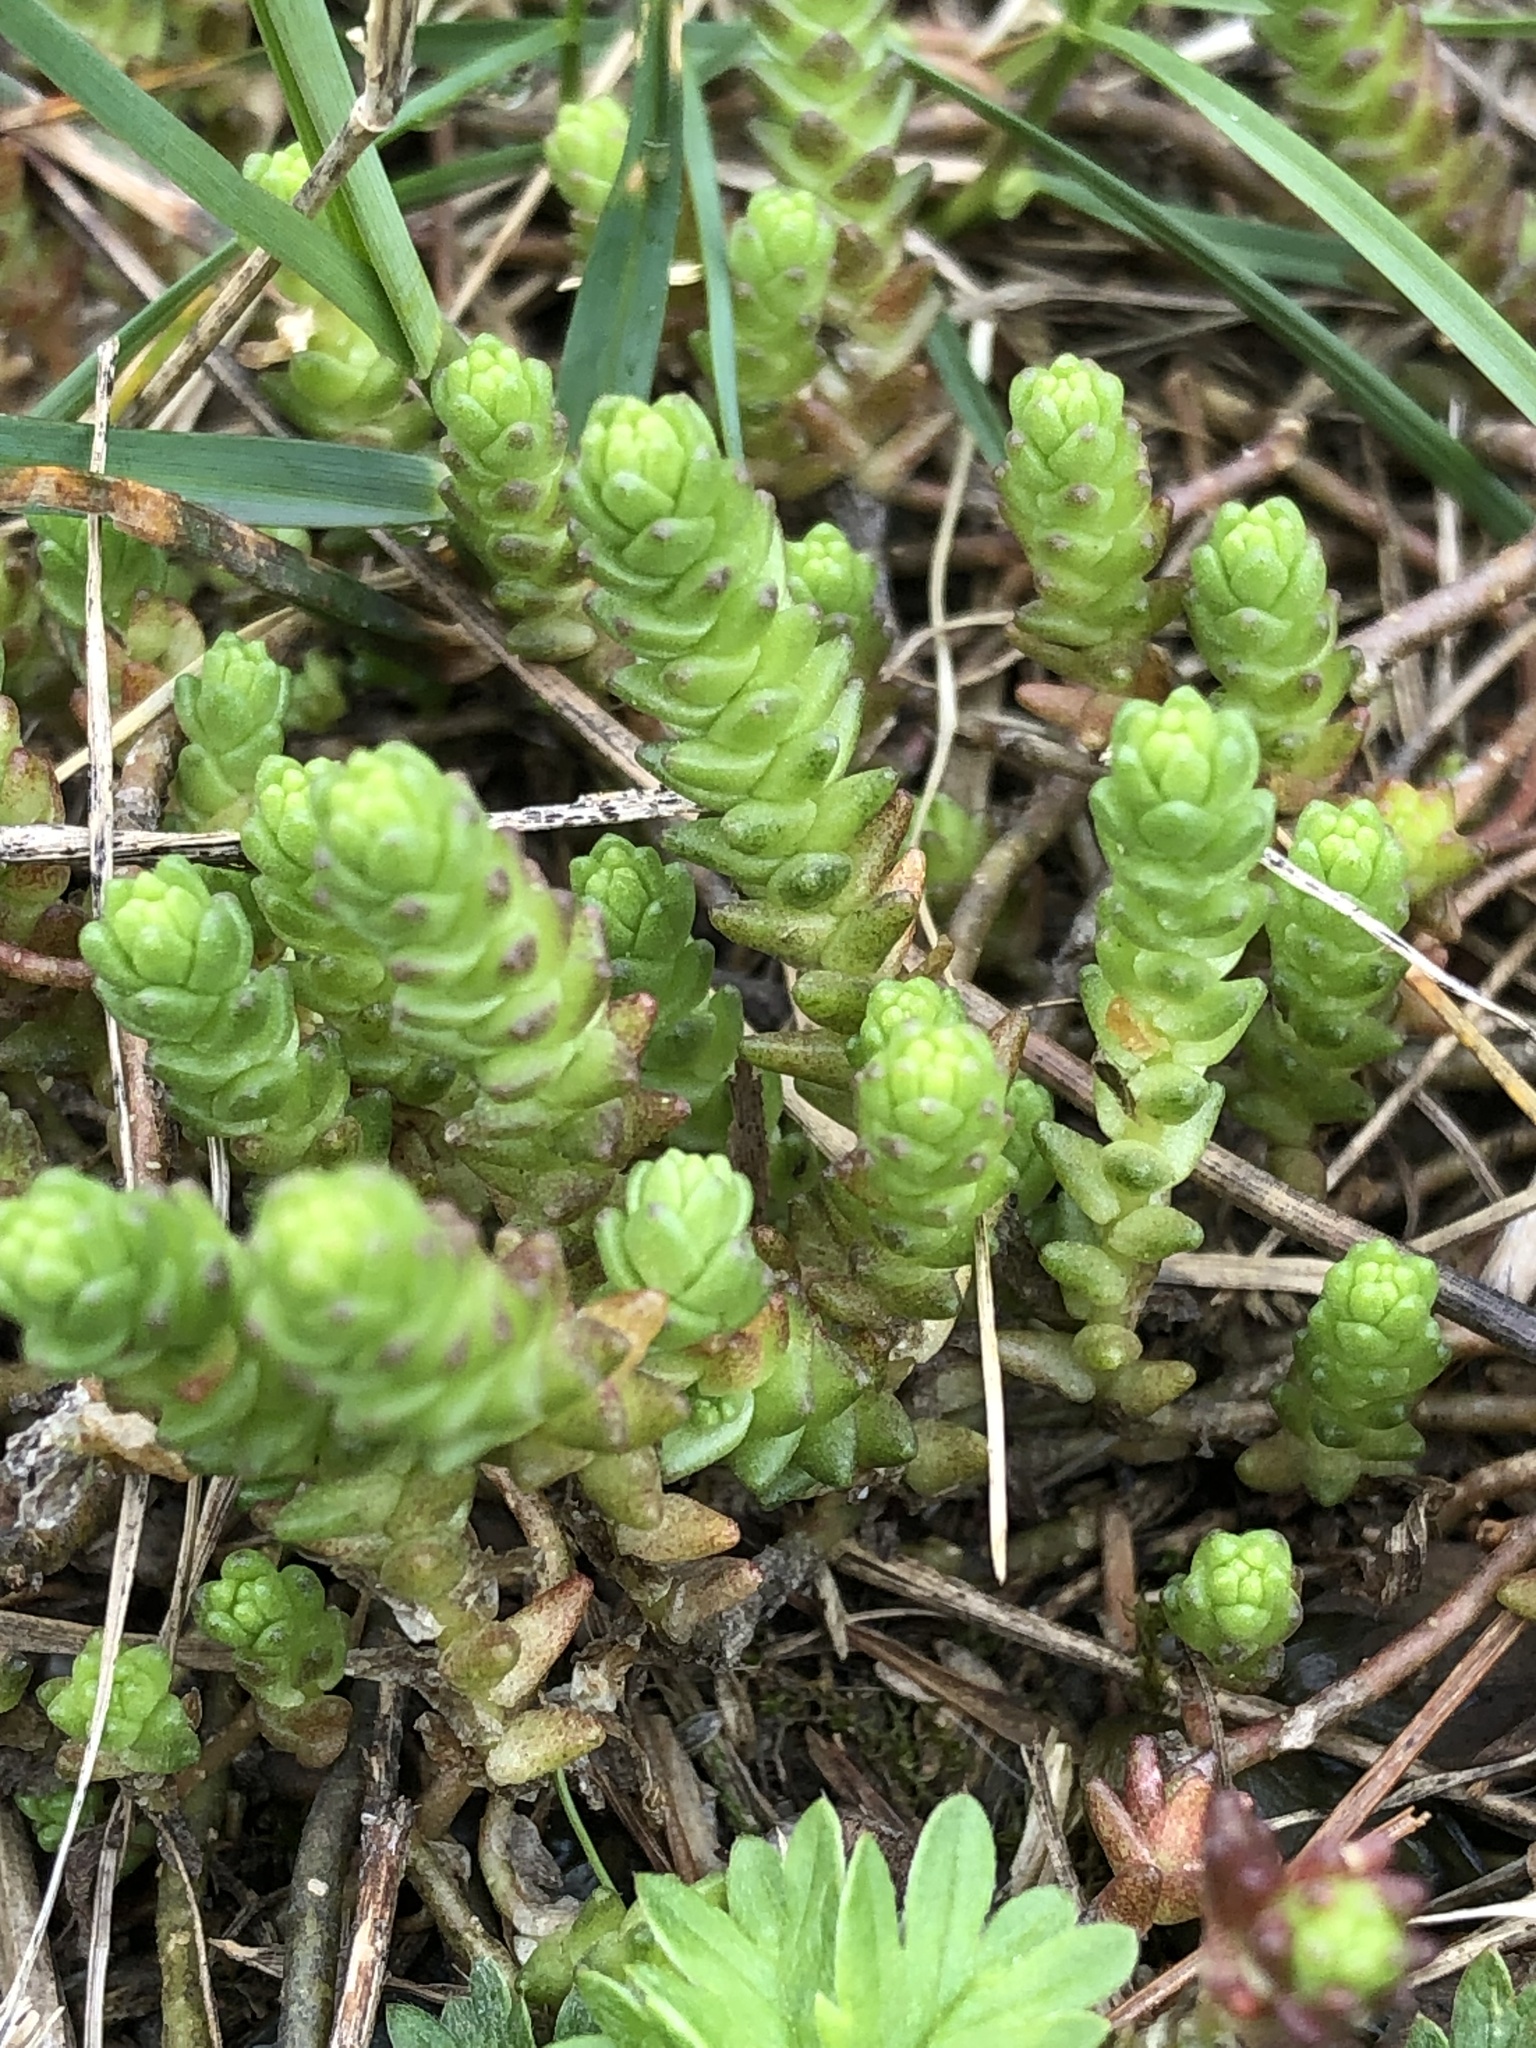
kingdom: Plantae
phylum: Tracheophyta
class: Magnoliopsida
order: Saxifragales
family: Crassulaceae
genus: Sedum
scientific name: Sedum acre
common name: Biting stonecrop
